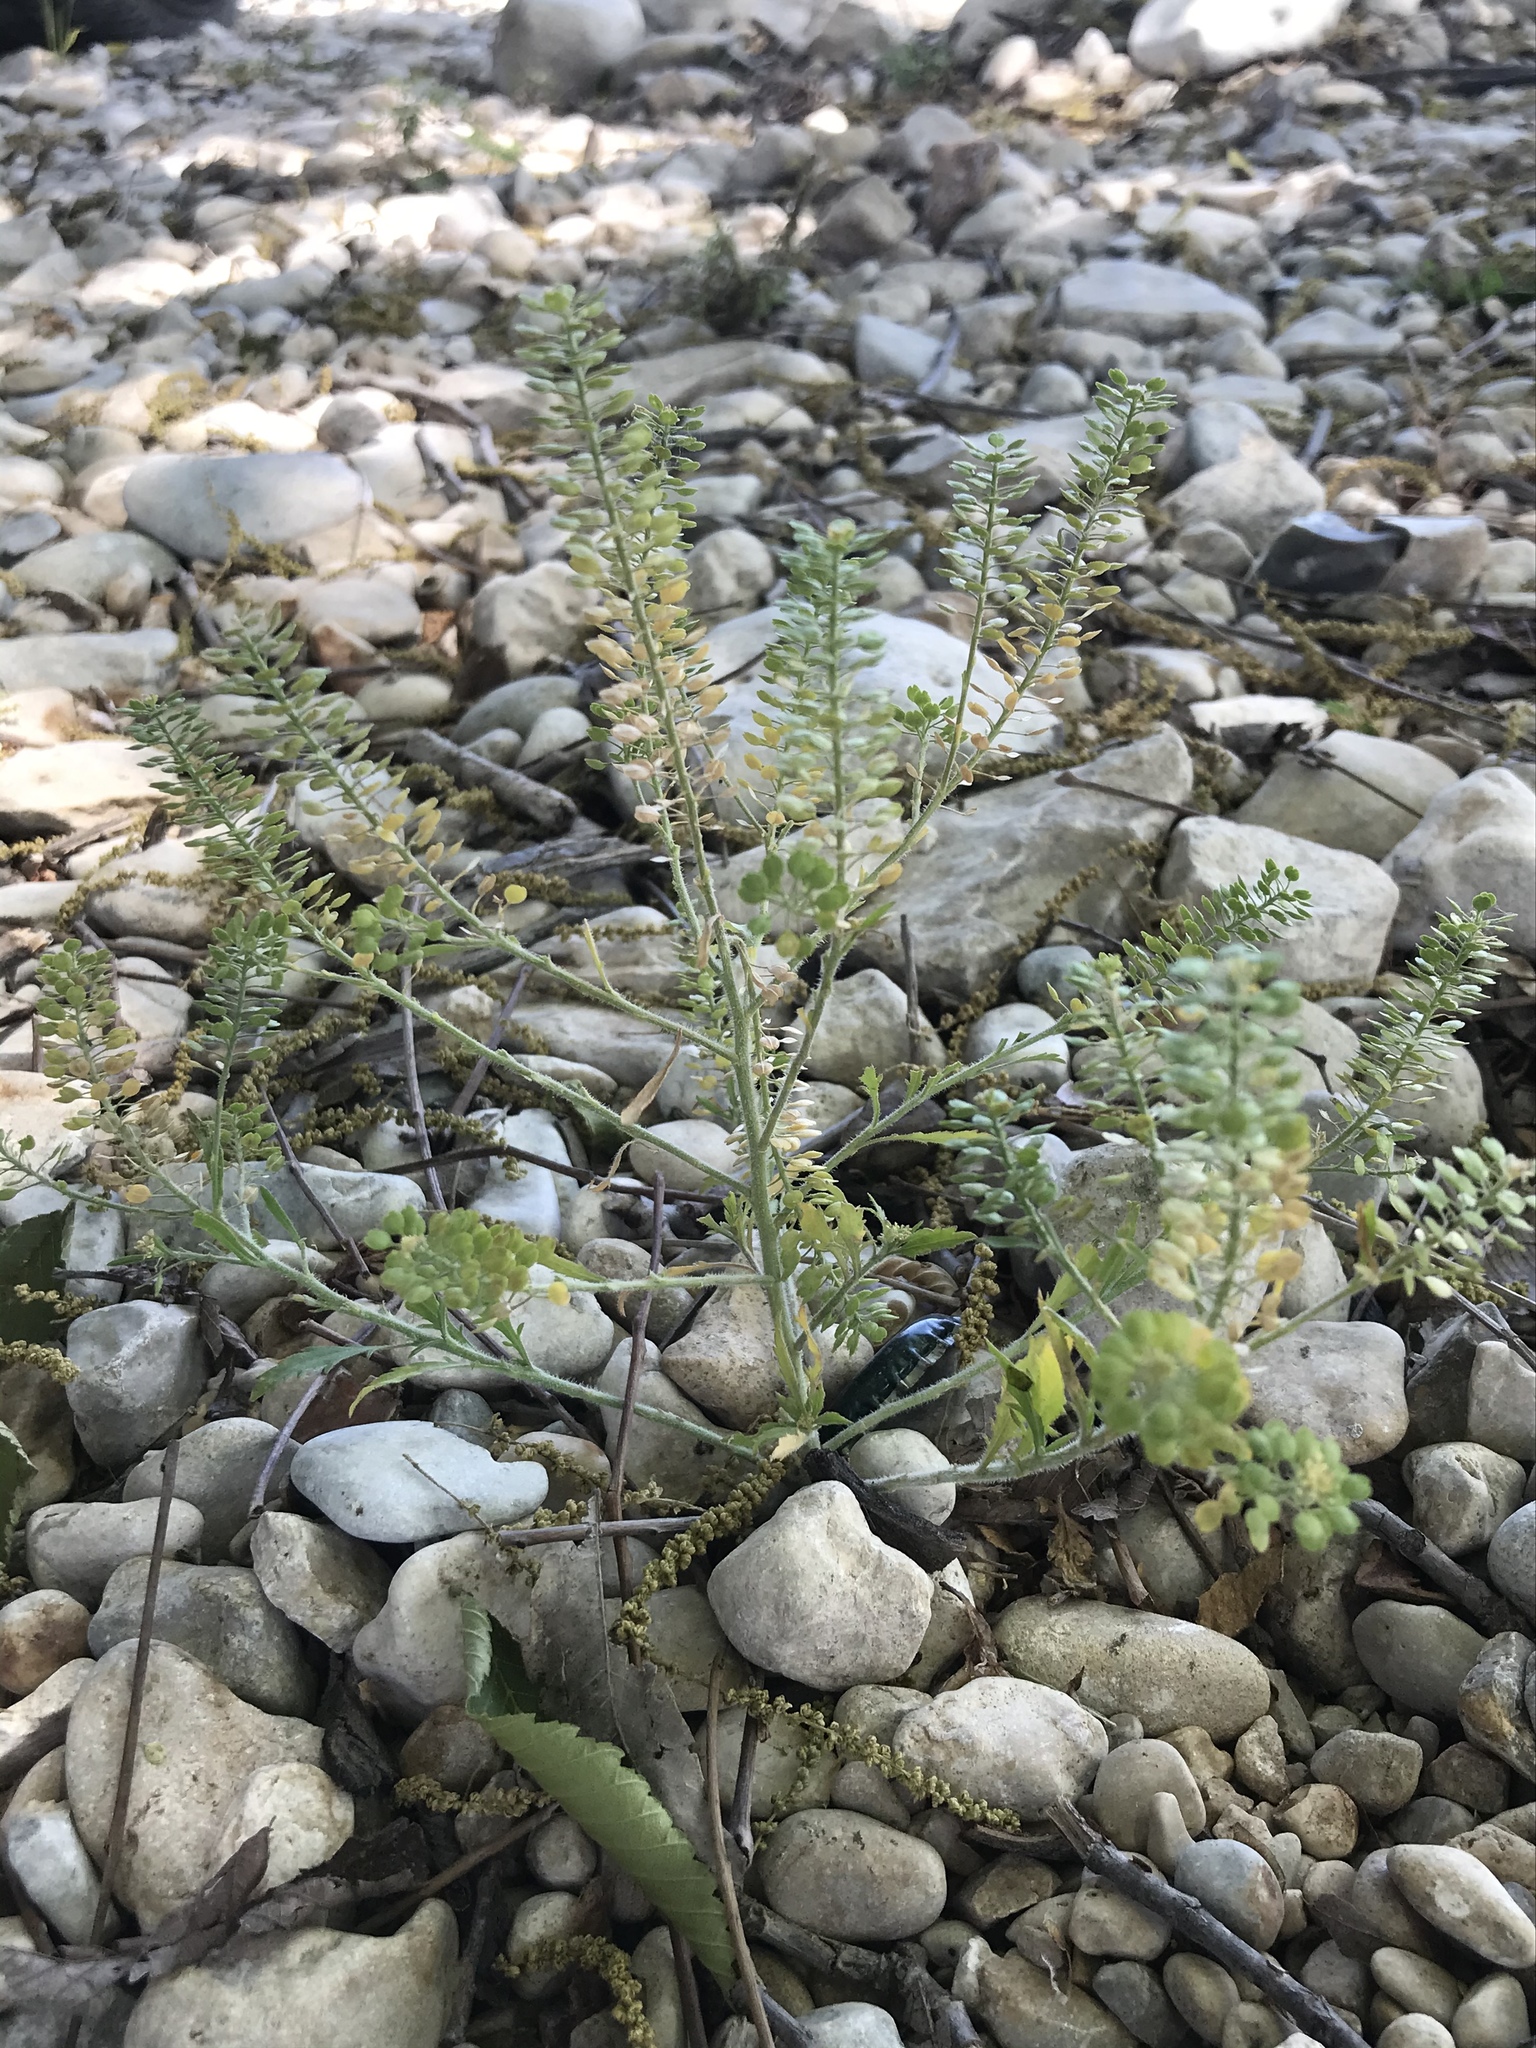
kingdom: Plantae
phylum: Tracheophyta
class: Magnoliopsida
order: Brassicales
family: Brassicaceae
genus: Lepidium
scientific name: Lepidium virginicum
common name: Least pepperwort
